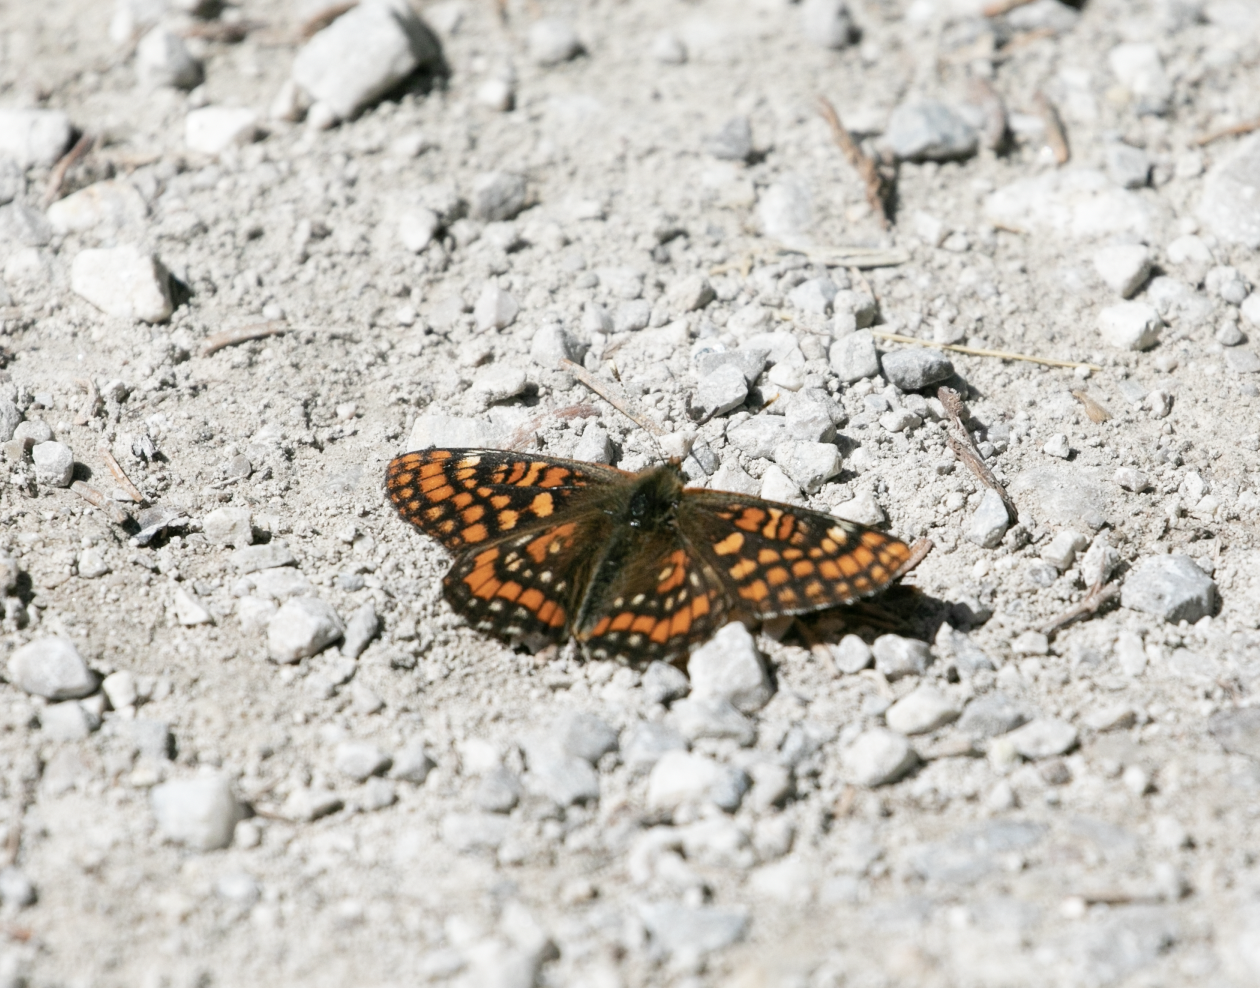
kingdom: Animalia
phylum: Arthropoda
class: Insecta
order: Lepidoptera
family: Nymphalidae
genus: Hypodryas
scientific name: Hypodryas intermedia
